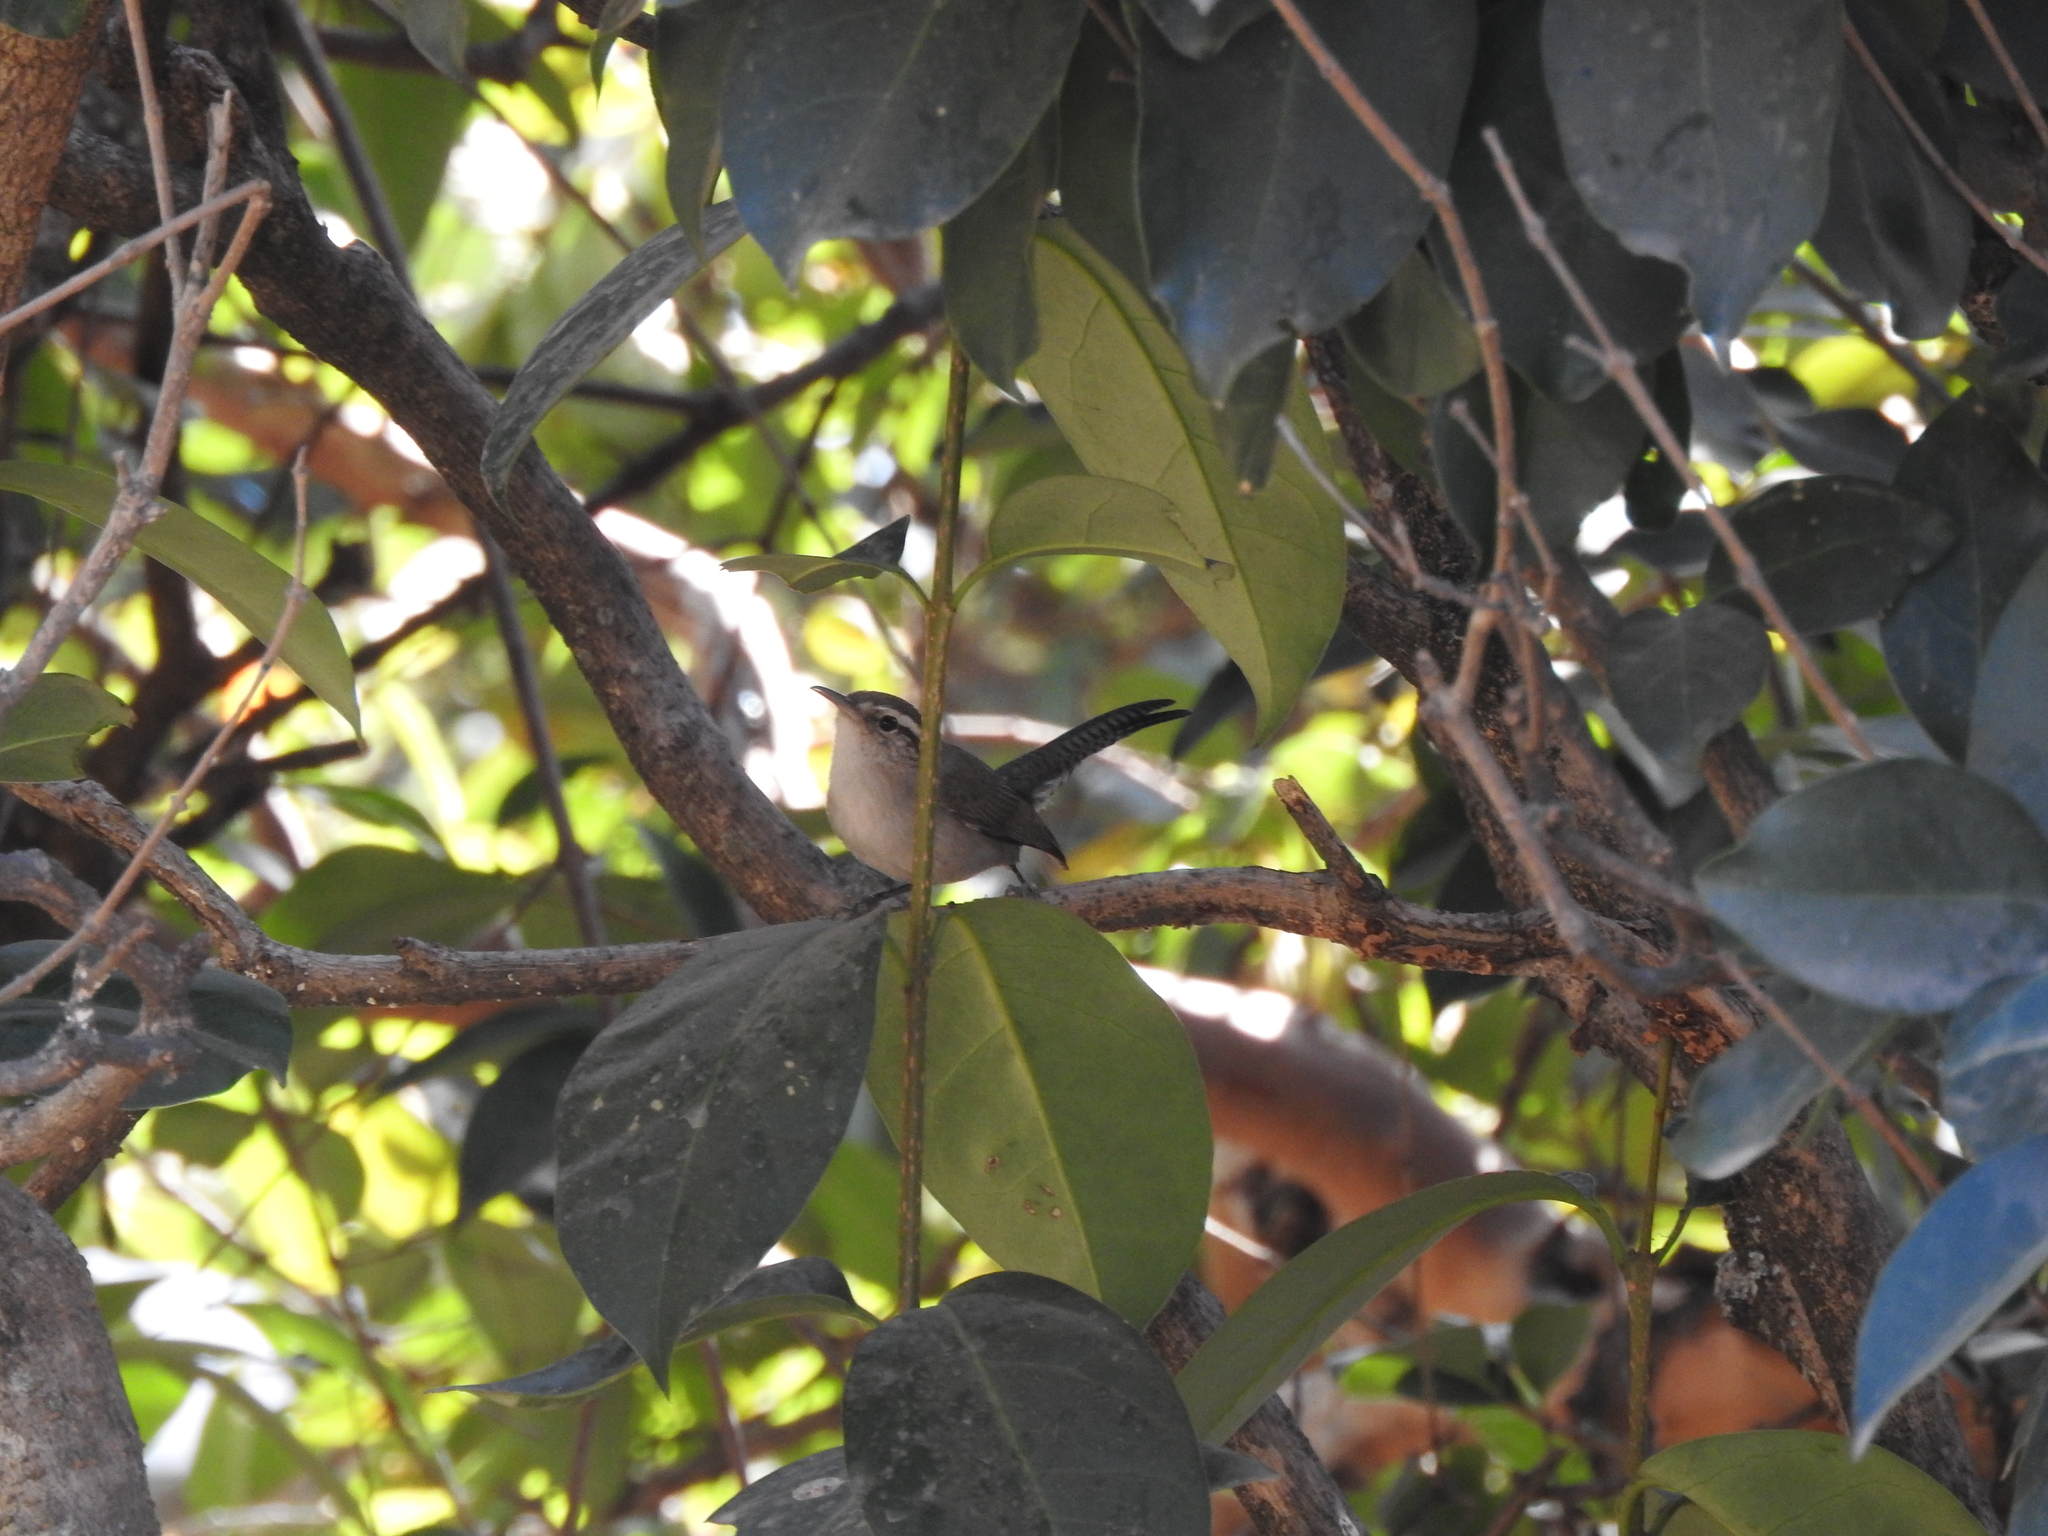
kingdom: Animalia
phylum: Chordata
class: Aves
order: Passeriformes
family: Troglodytidae
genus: Thryomanes
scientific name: Thryomanes bewickii
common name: Bewick's wren
